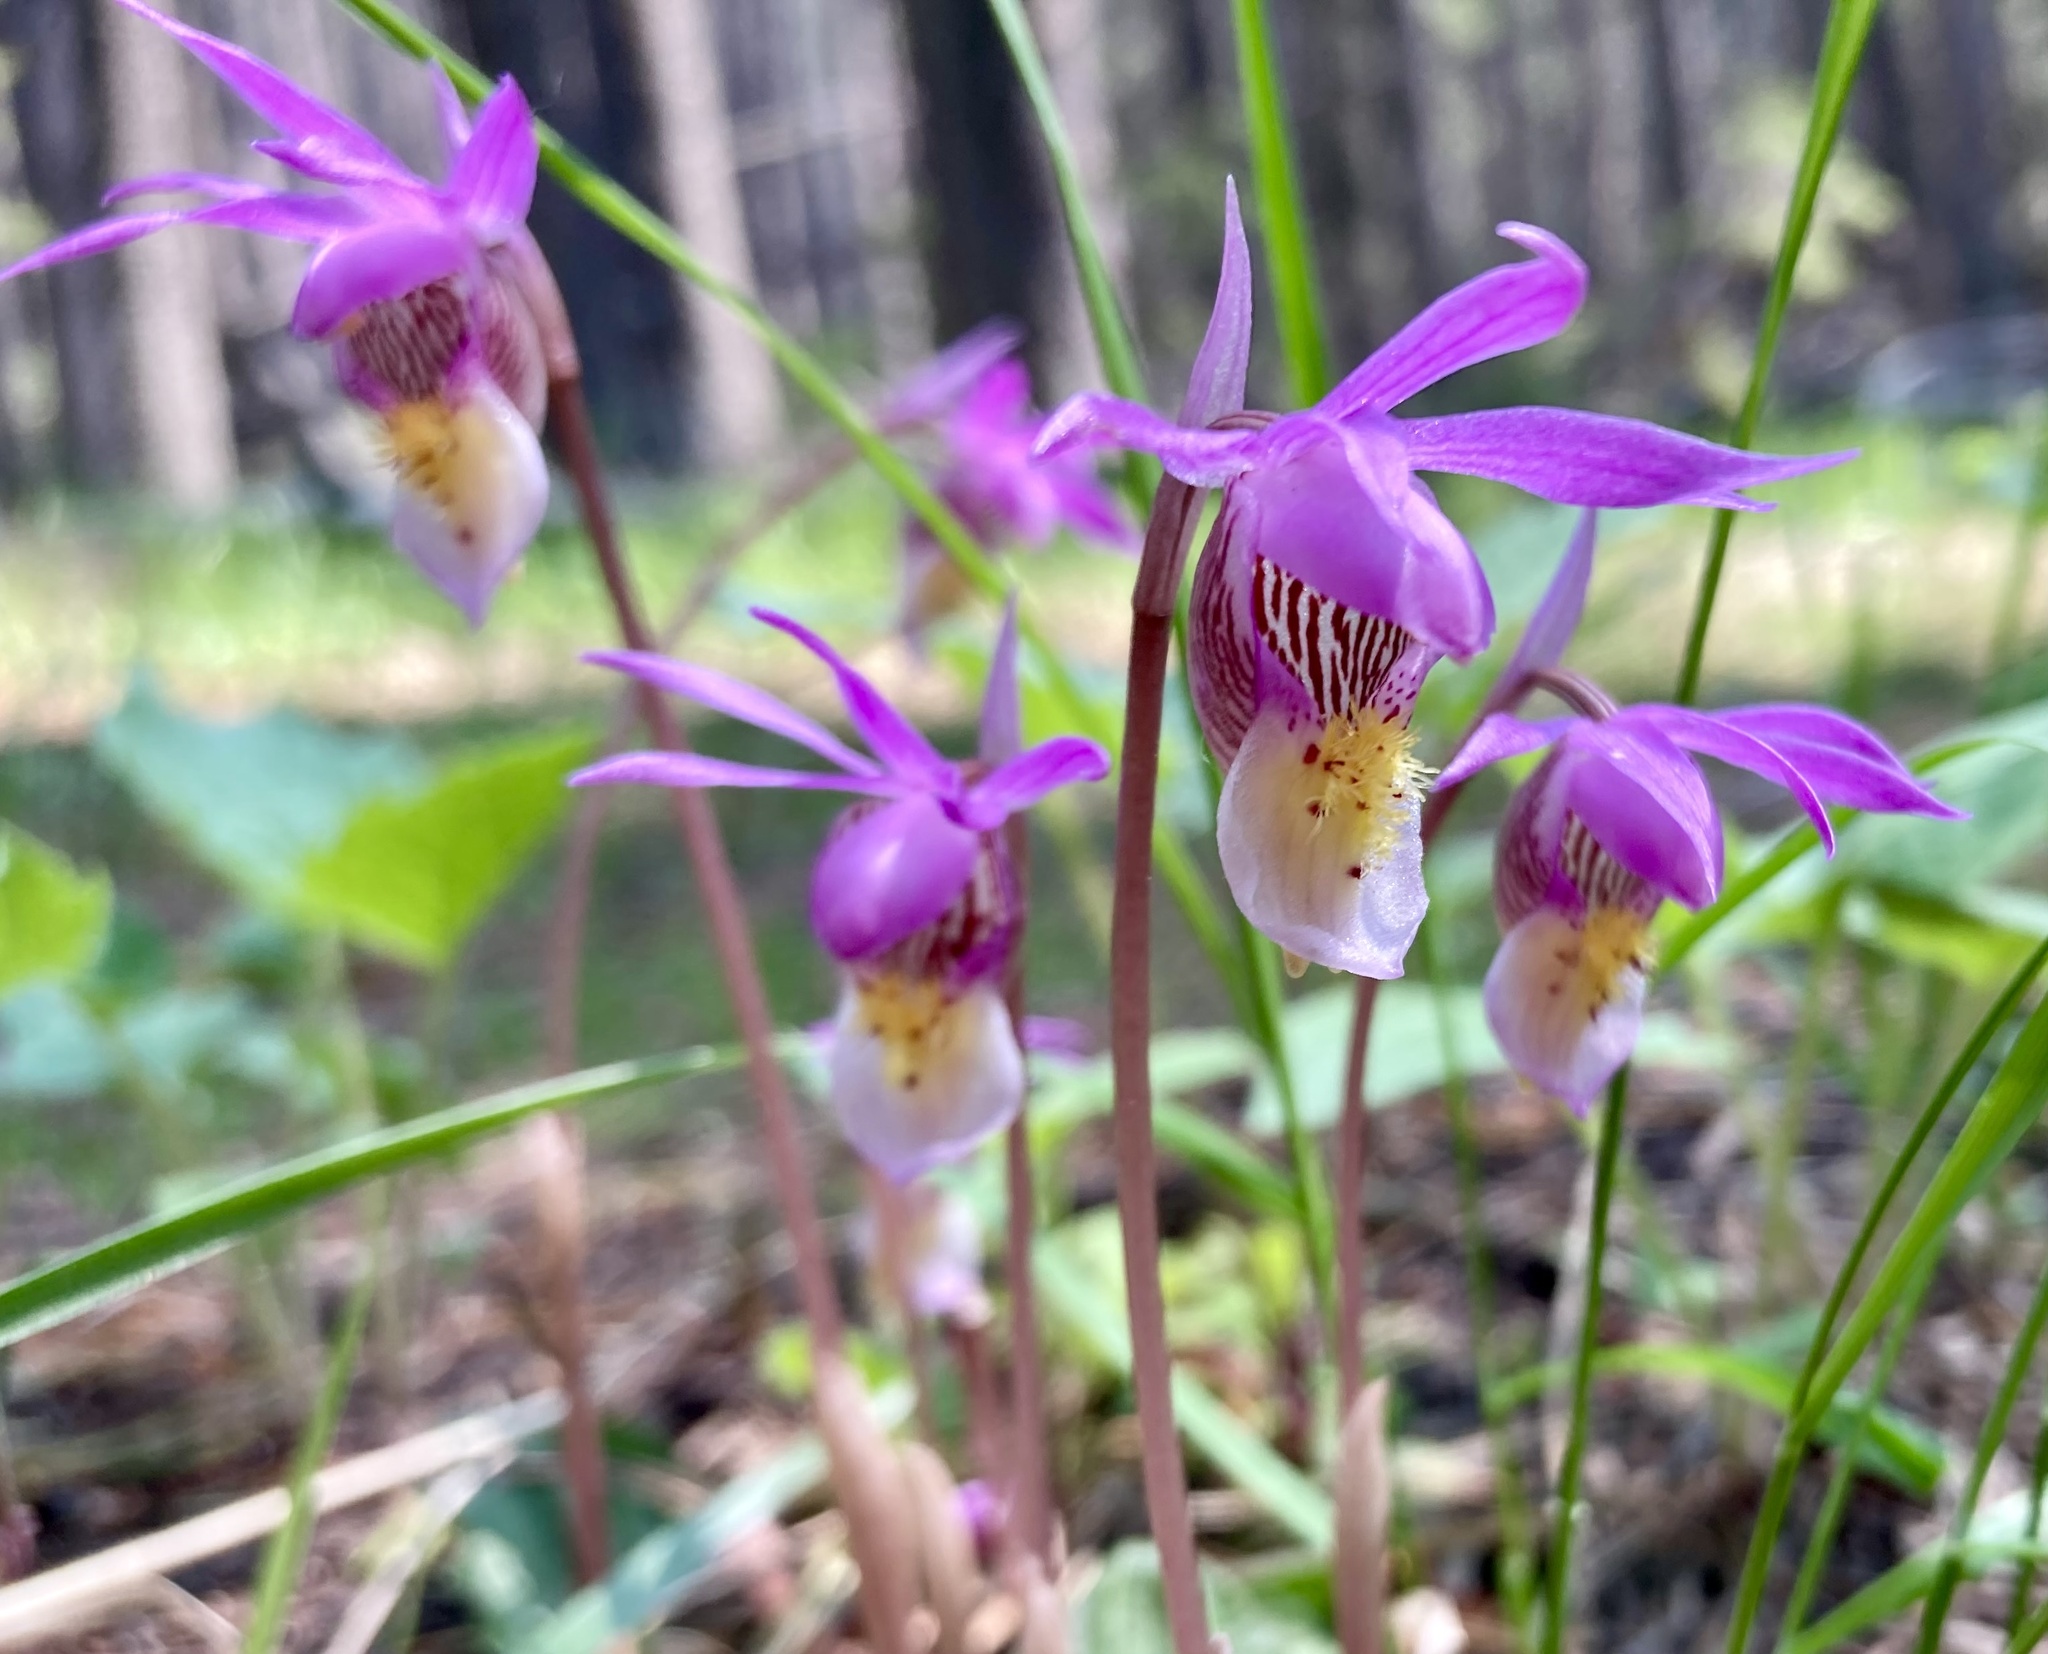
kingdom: Plantae
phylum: Tracheophyta
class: Liliopsida
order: Asparagales
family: Orchidaceae
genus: Calypso
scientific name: Calypso bulbosa
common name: Calypso
